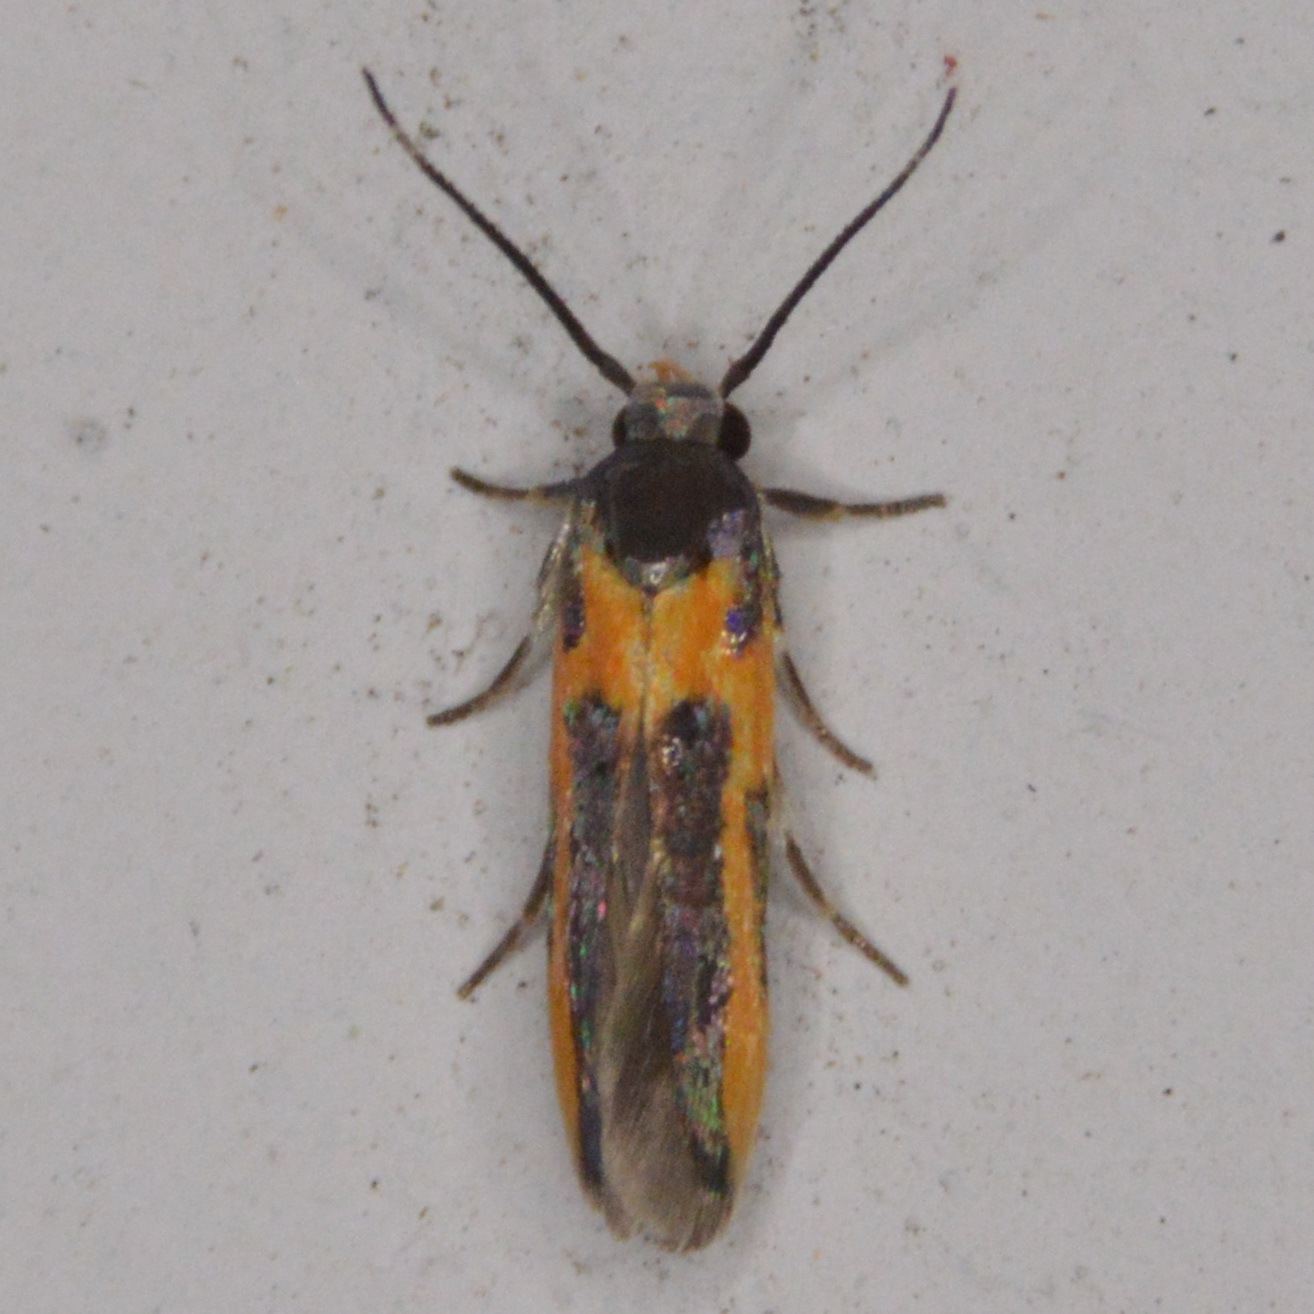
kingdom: Animalia
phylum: Arthropoda
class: Insecta
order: Lepidoptera
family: Cosmopterigidae
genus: Euclemensia
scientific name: Euclemensia bassettella
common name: Kermes scale moth
